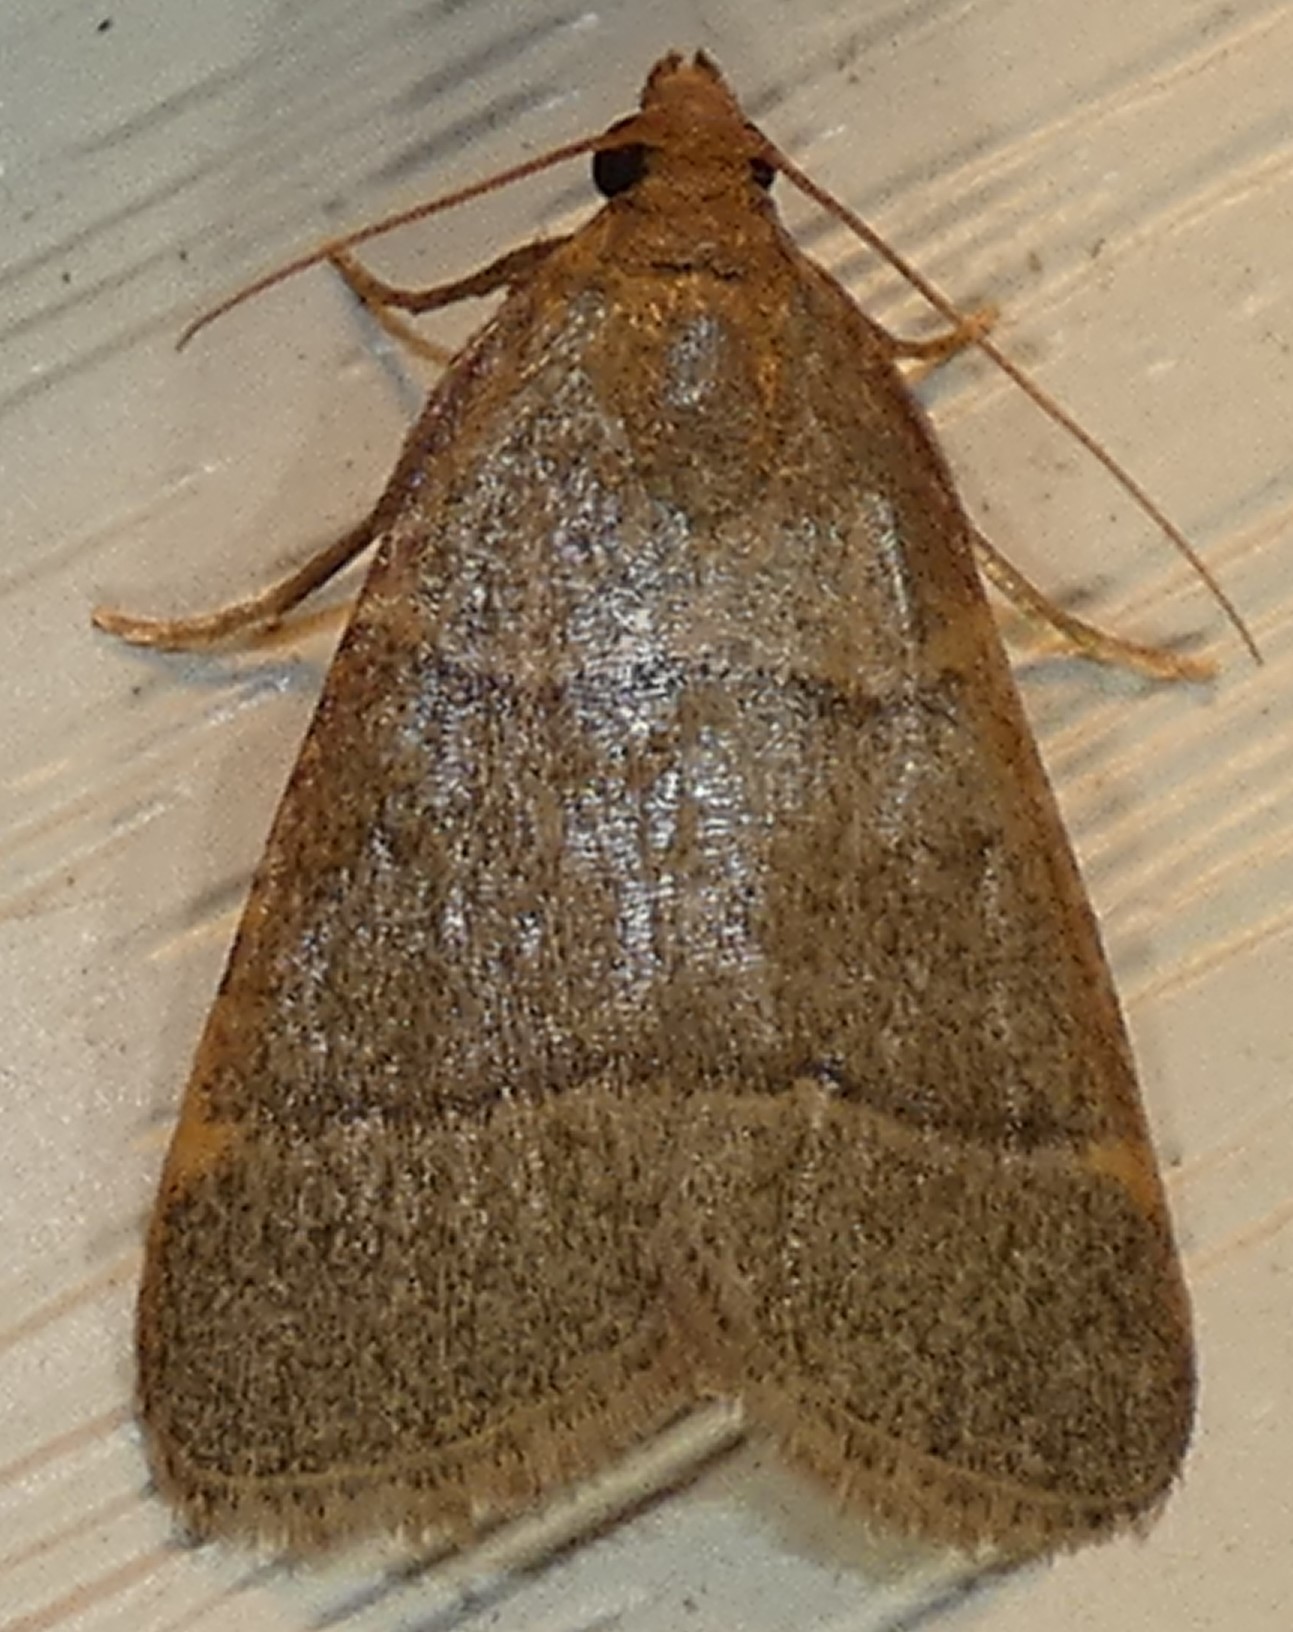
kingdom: Animalia
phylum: Arthropoda
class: Insecta
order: Lepidoptera
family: Pyralidae
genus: Hypsopygia
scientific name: Hypsopygia nostralis
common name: Southern hayworm moth
